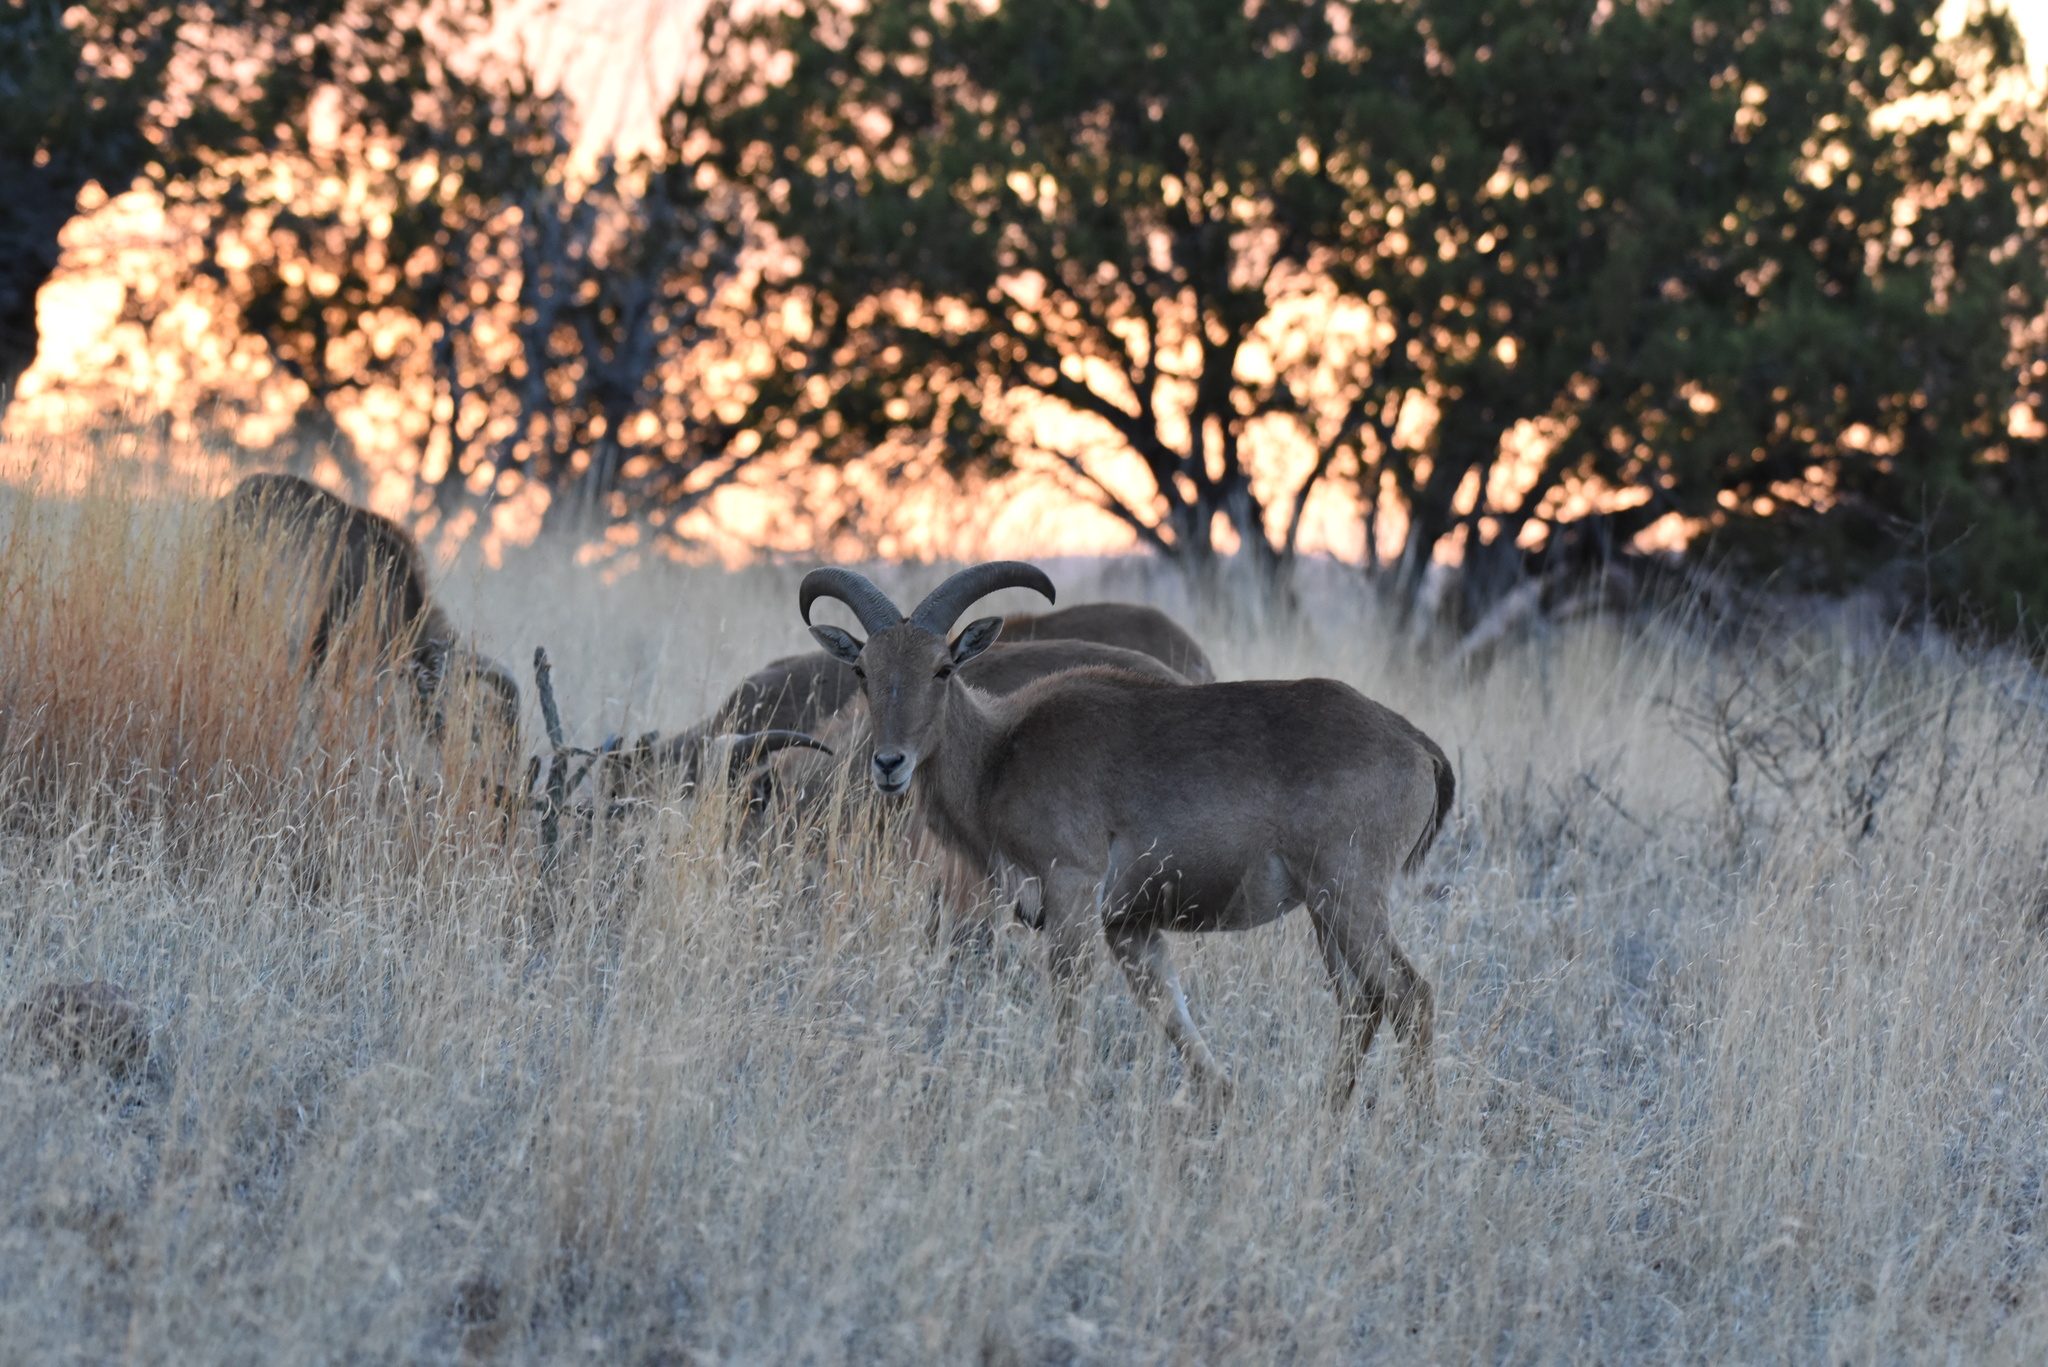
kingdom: Animalia
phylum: Chordata
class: Mammalia
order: Artiodactyla
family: Bovidae
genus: Ammotragus
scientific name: Ammotragus lervia
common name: Barbary sheep
